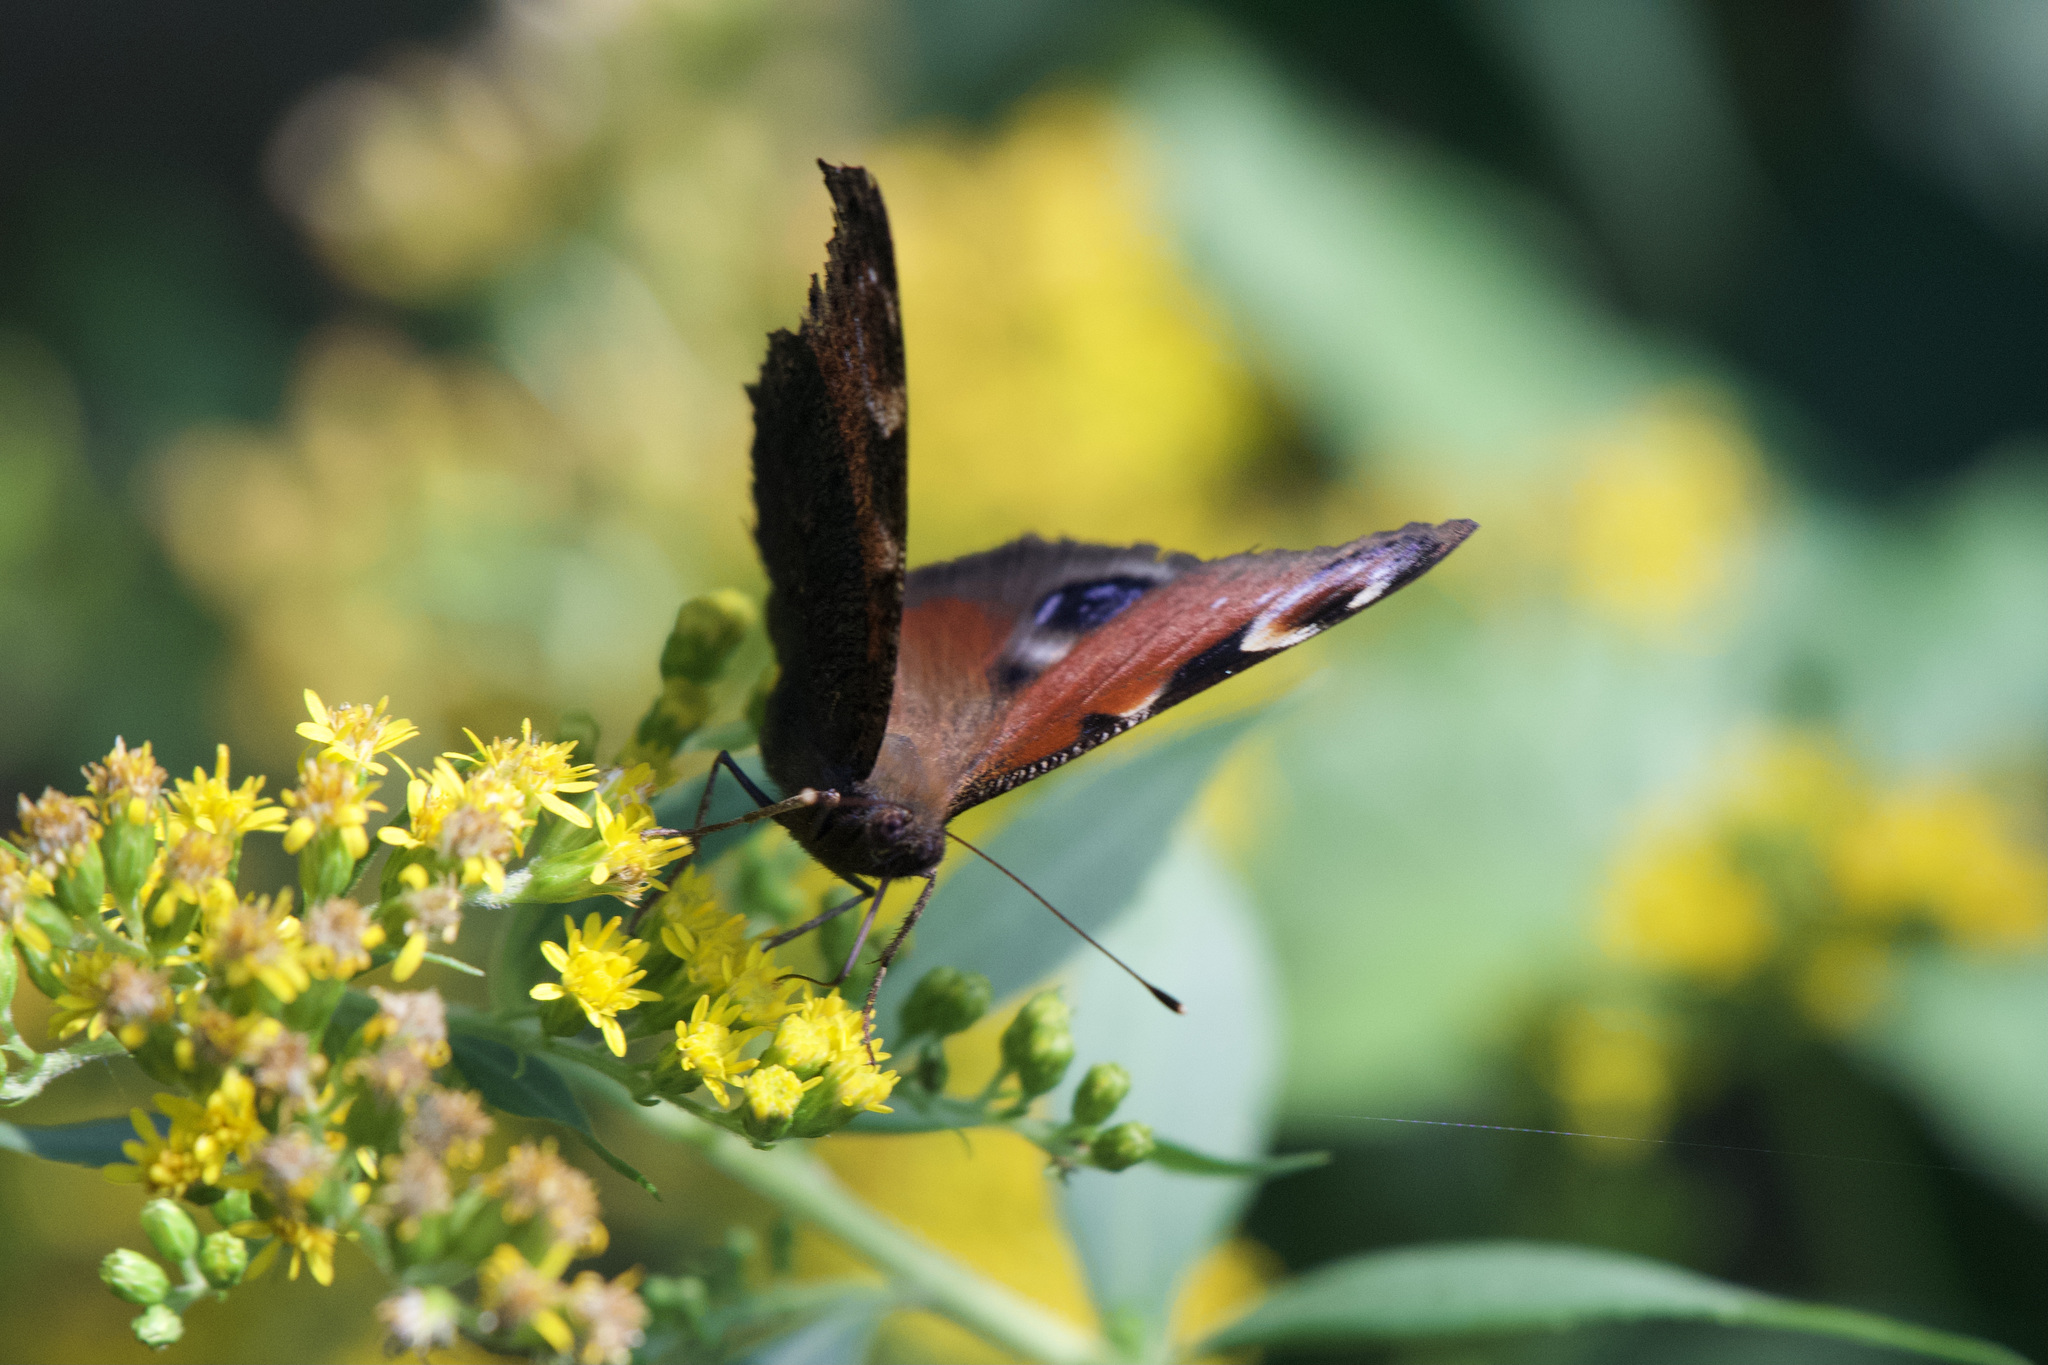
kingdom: Animalia
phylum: Arthropoda
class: Insecta
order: Lepidoptera
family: Nymphalidae
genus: Aglais
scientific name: Aglais io
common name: Peacock
